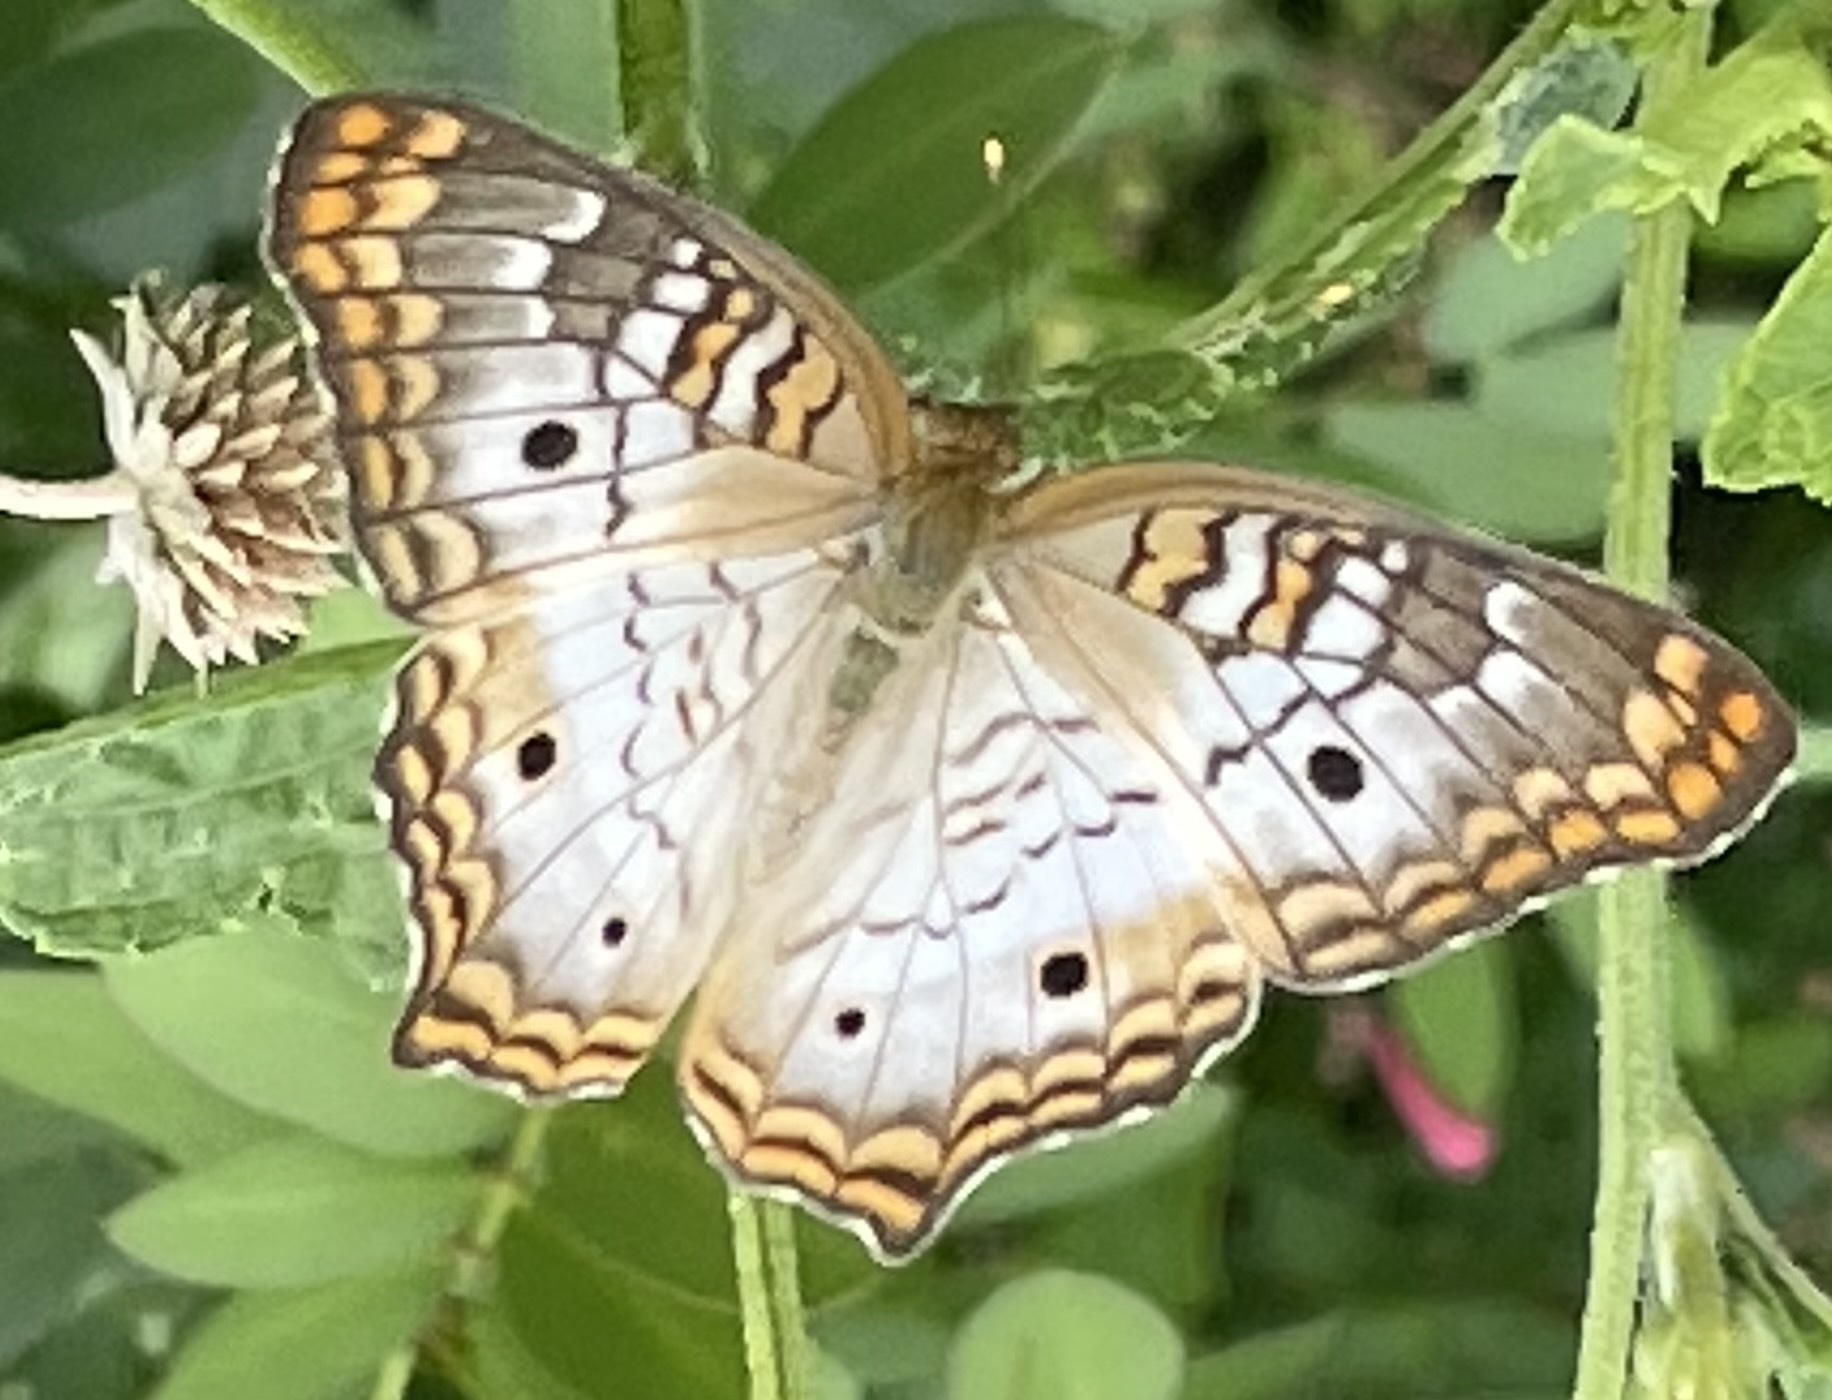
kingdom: Animalia
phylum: Arthropoda
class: Insecta
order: Lepidoptera
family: Nymphalidae
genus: Anartia
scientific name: Anartia jatrophae
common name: White peacock
